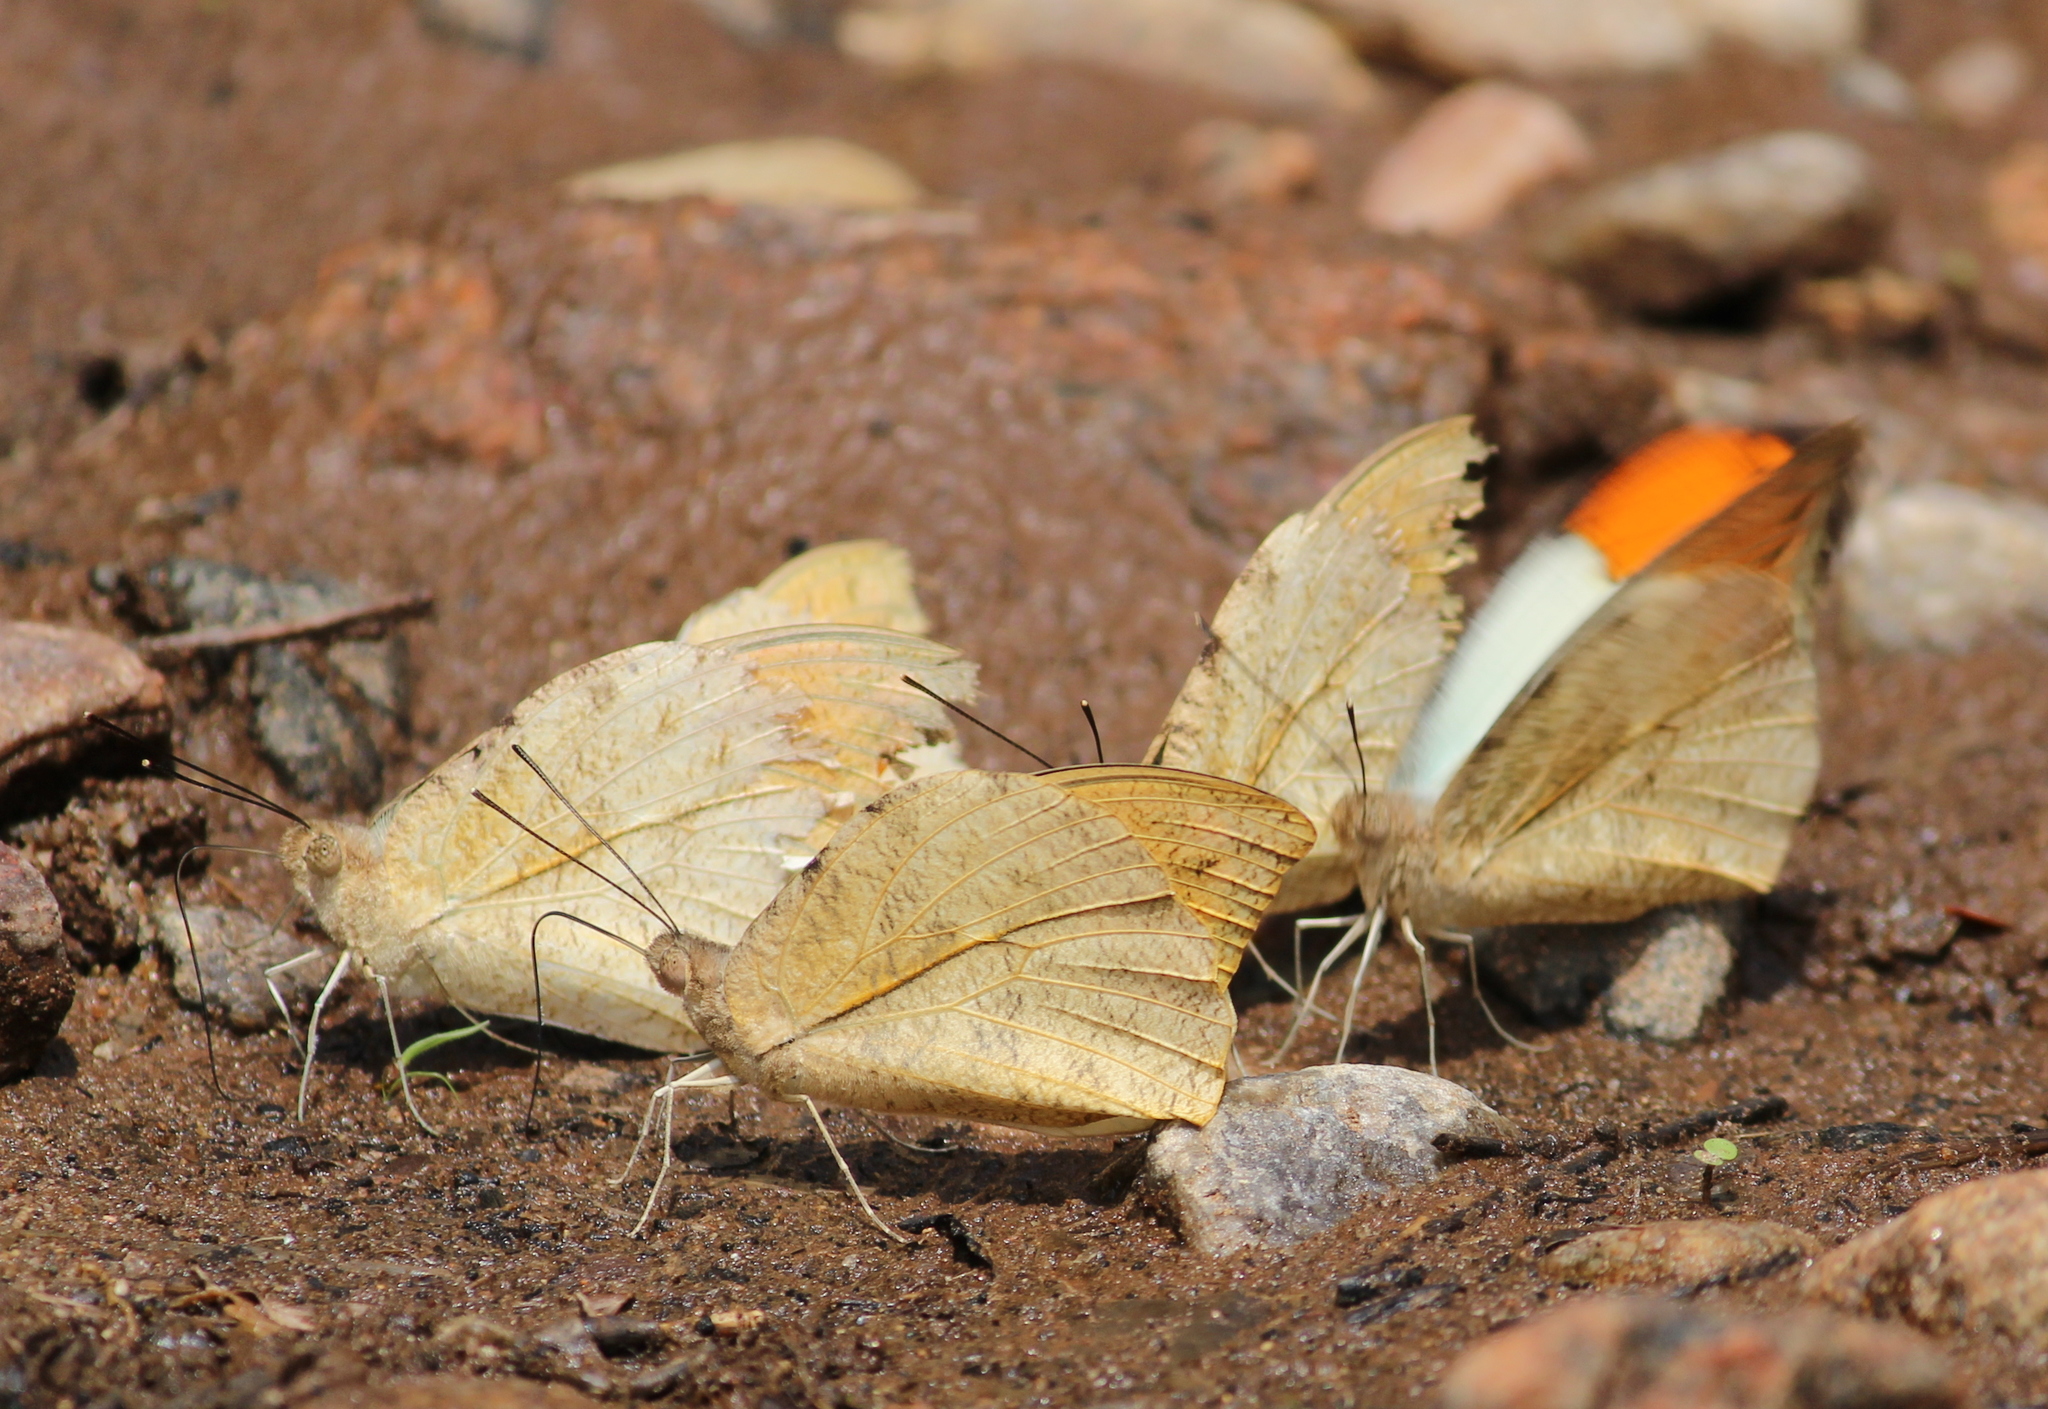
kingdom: Animalia
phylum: Arthropoda
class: Insecta
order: Lepidoptera
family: Pieridae
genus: Hebomoia
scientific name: Hebomoia glaucippe
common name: Great orange tip
